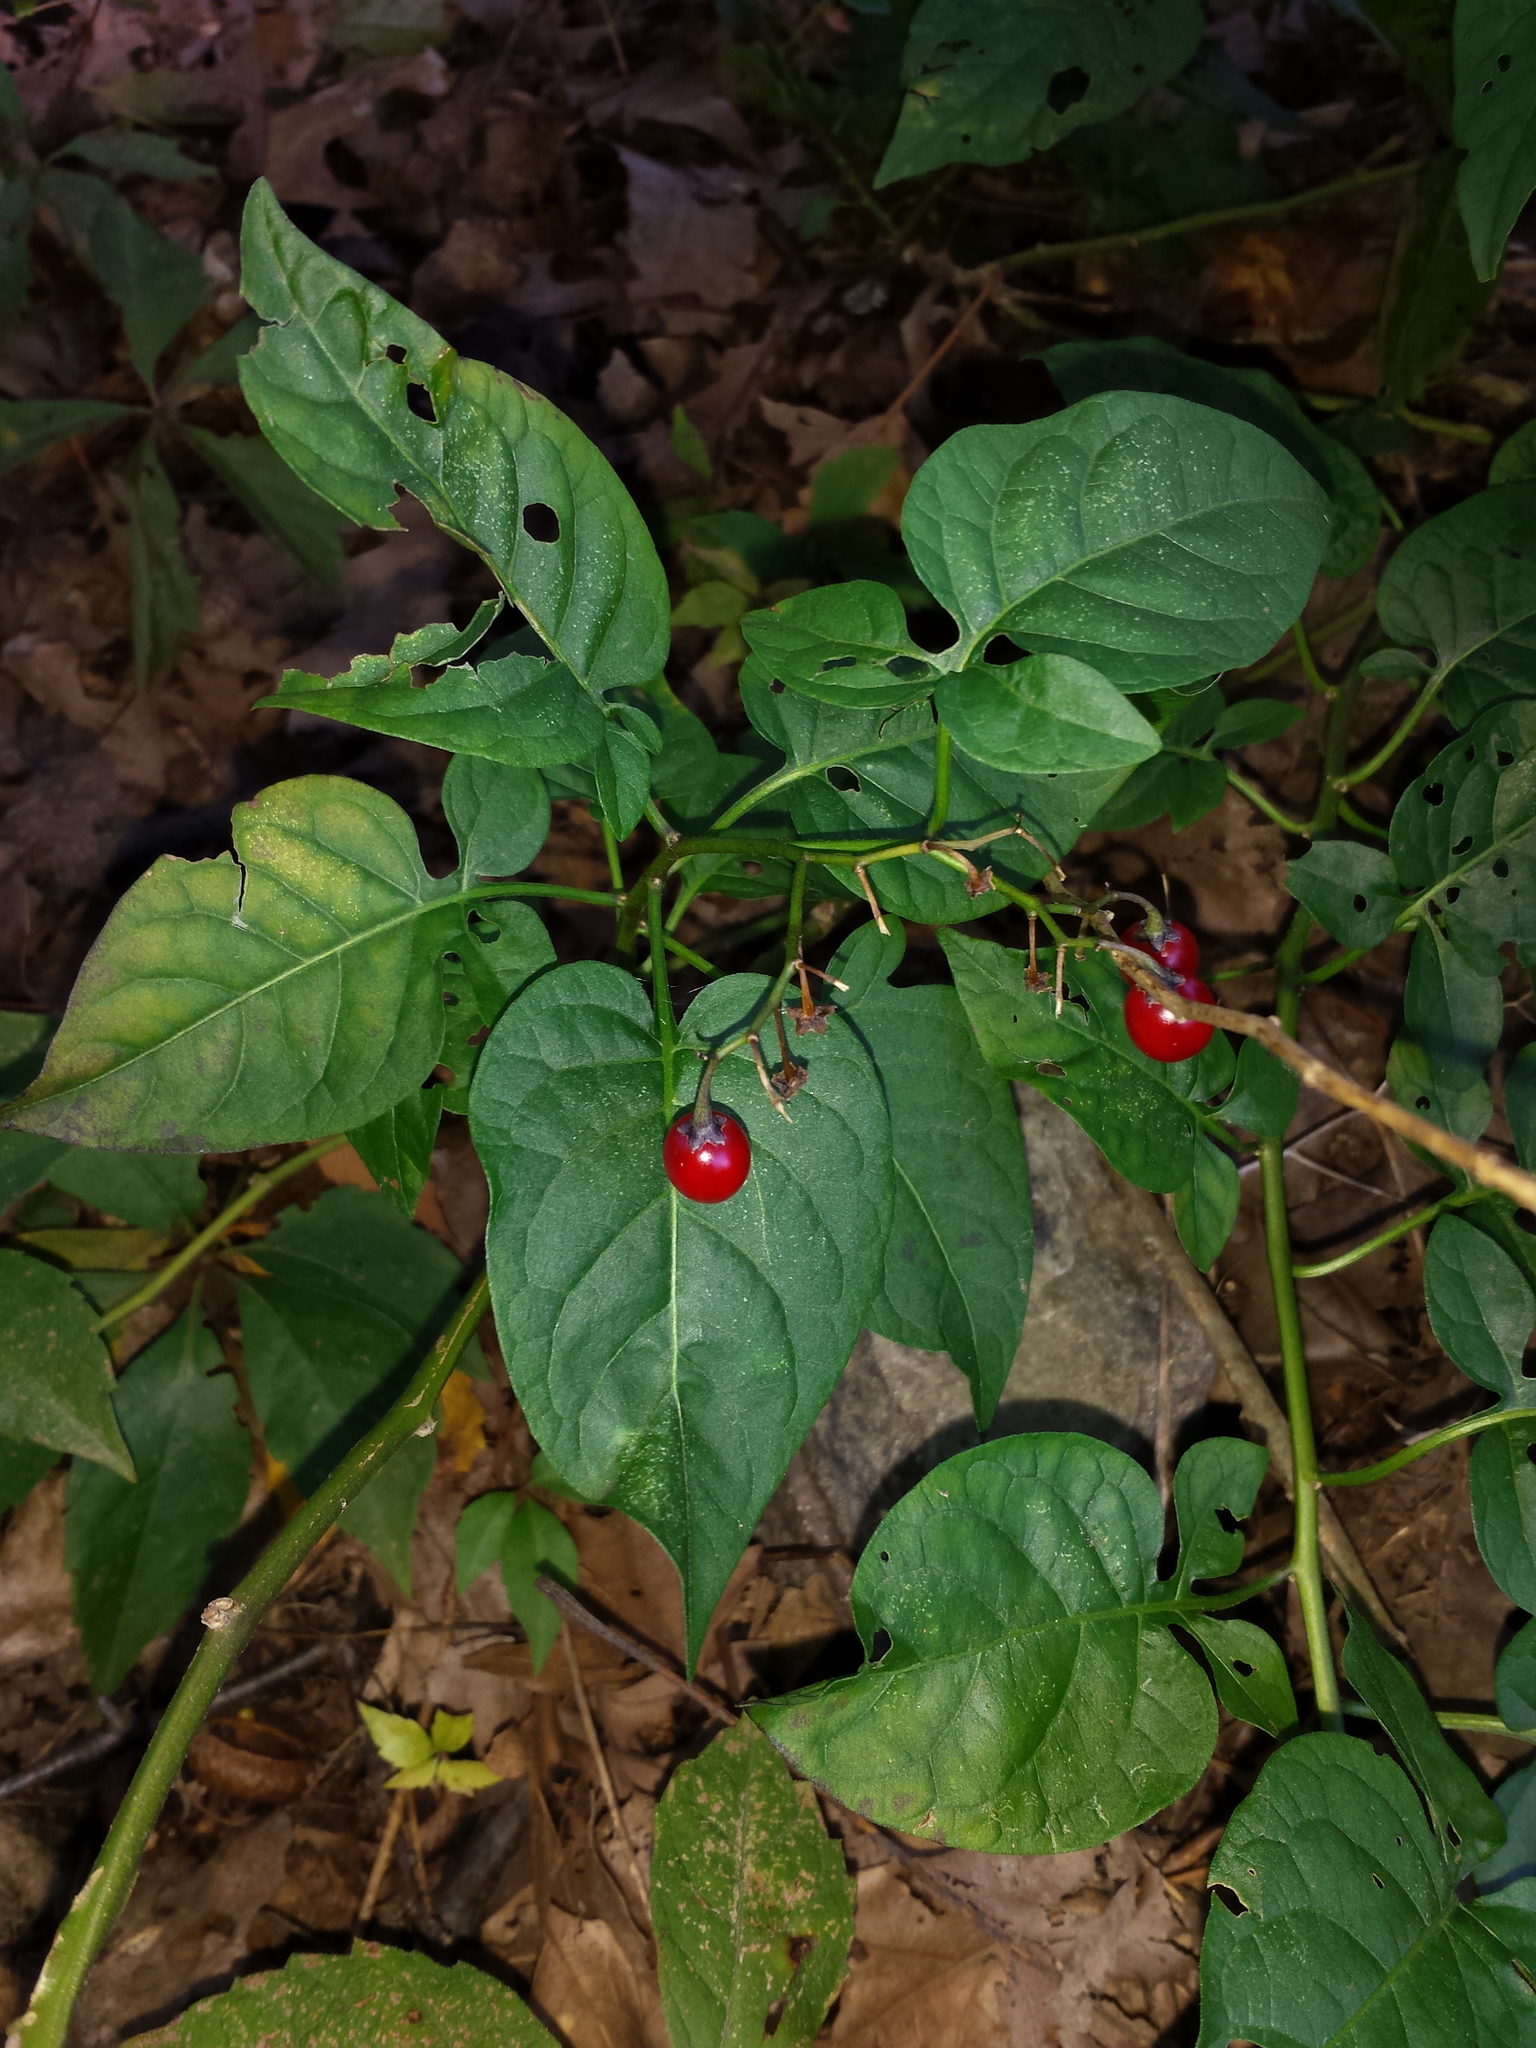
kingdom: Plantae
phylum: Tracheophyta
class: Magnoliopsida
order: Solanales
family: Solanaceae
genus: Solanum
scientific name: Solanum dulcamara
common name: Climbing nightshade
